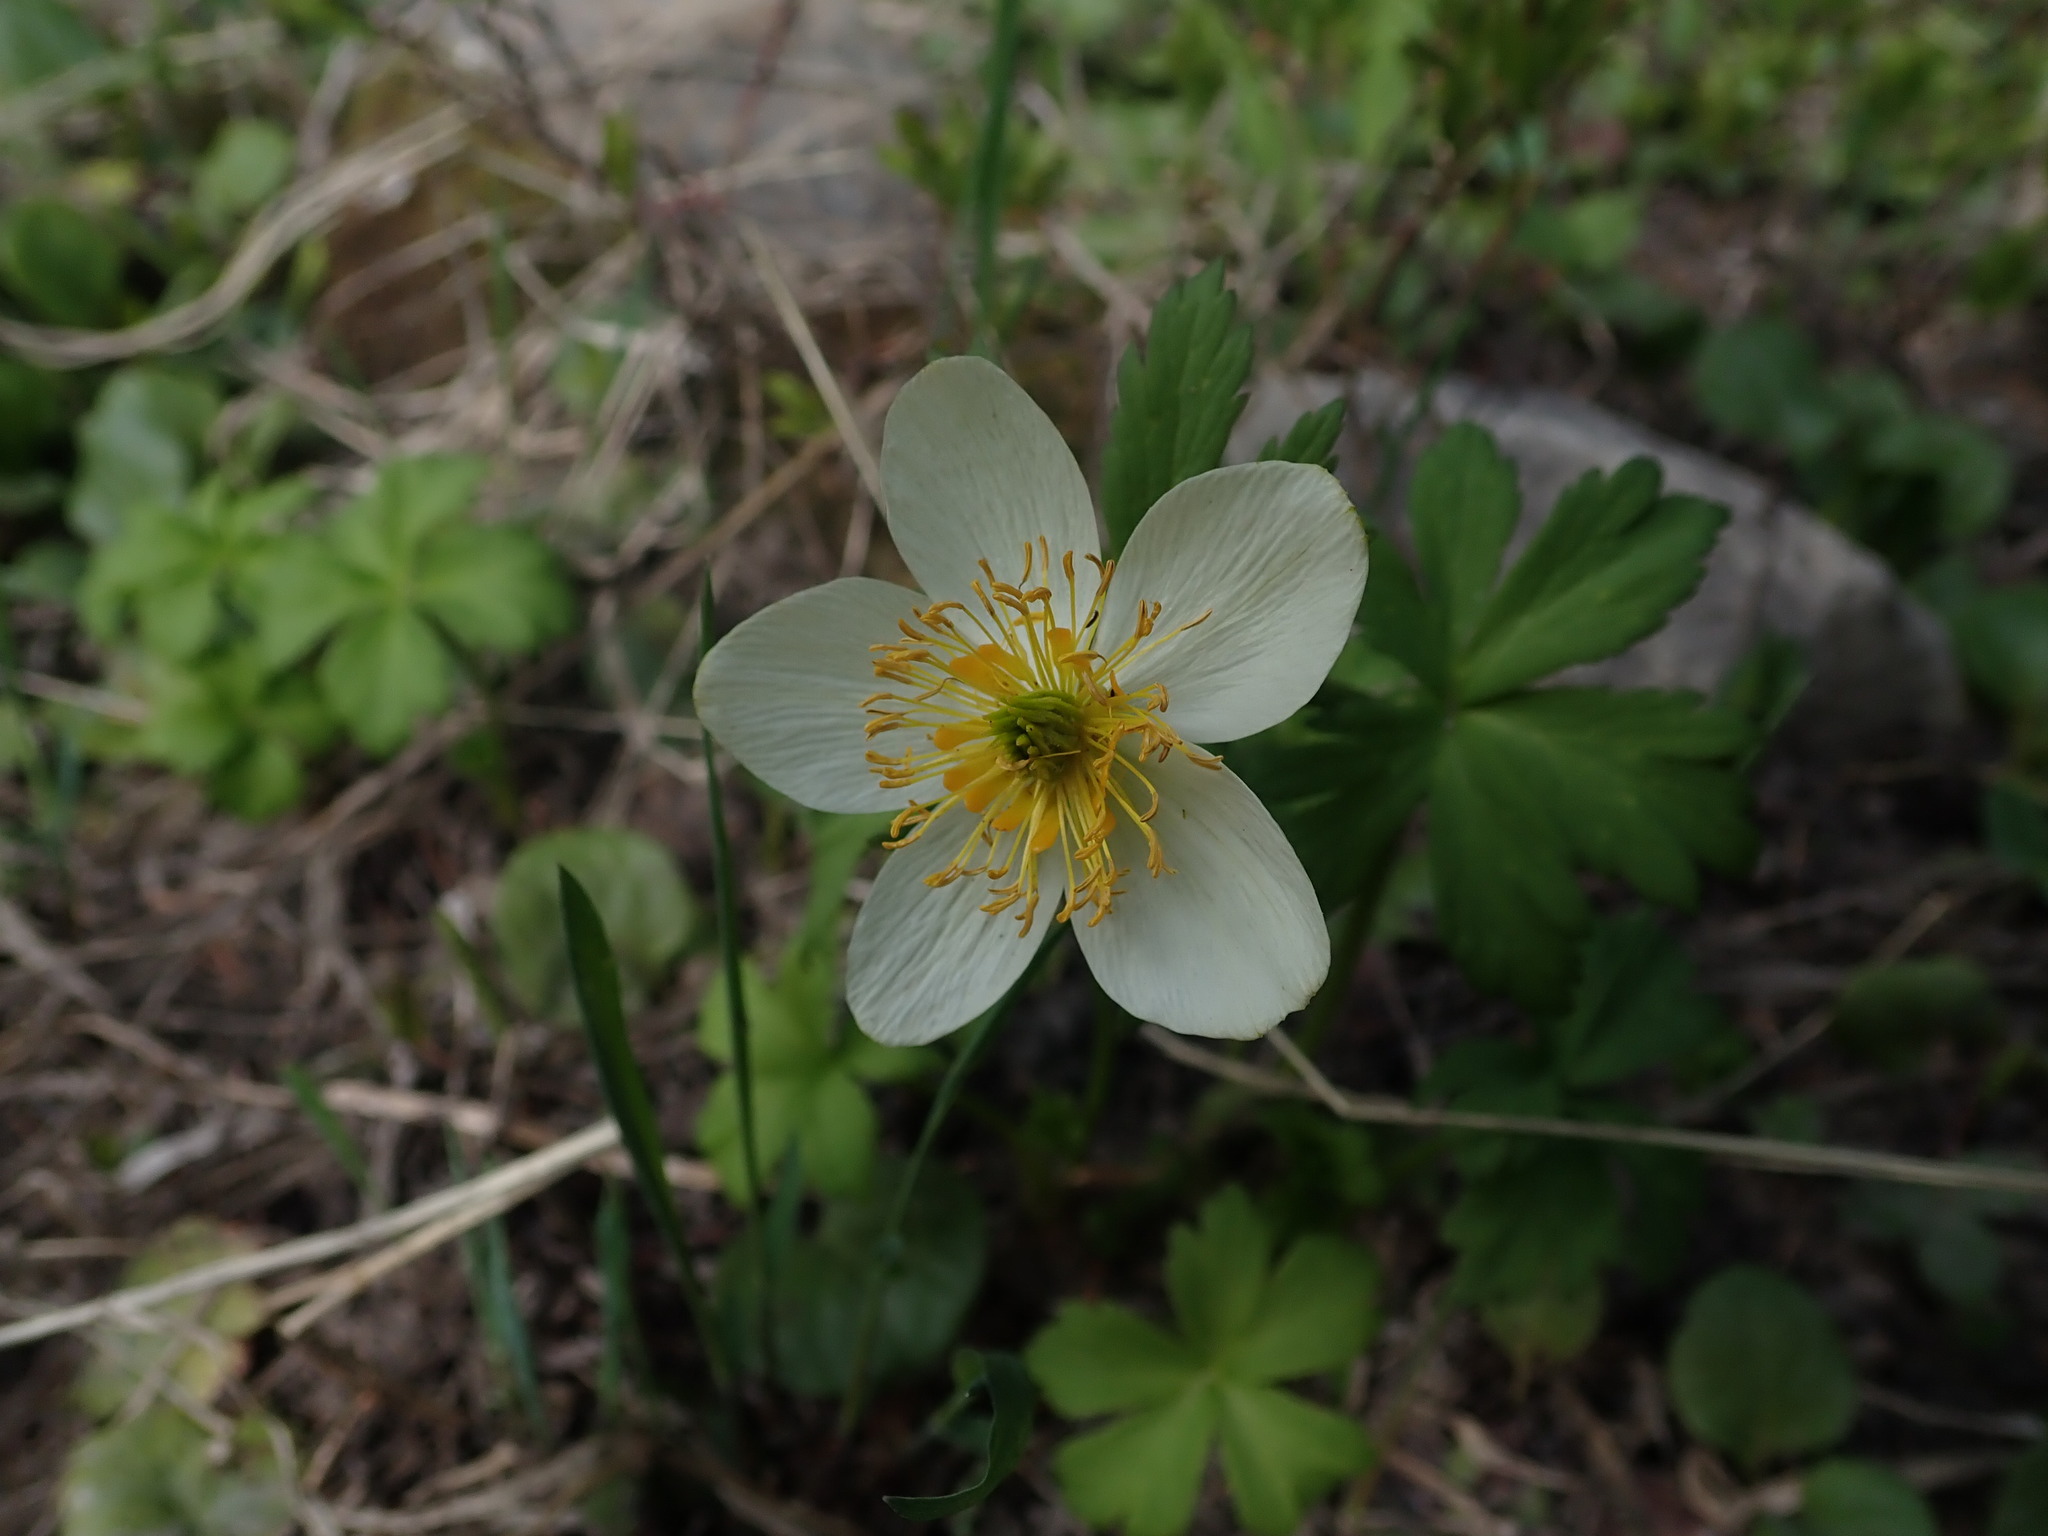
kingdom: Plantae
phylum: Tracheophyta
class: Magnoliopsida
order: Ranunculales
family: Ranunculaceae
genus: Trollius
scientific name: Trollius laxus
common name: American globeflower
